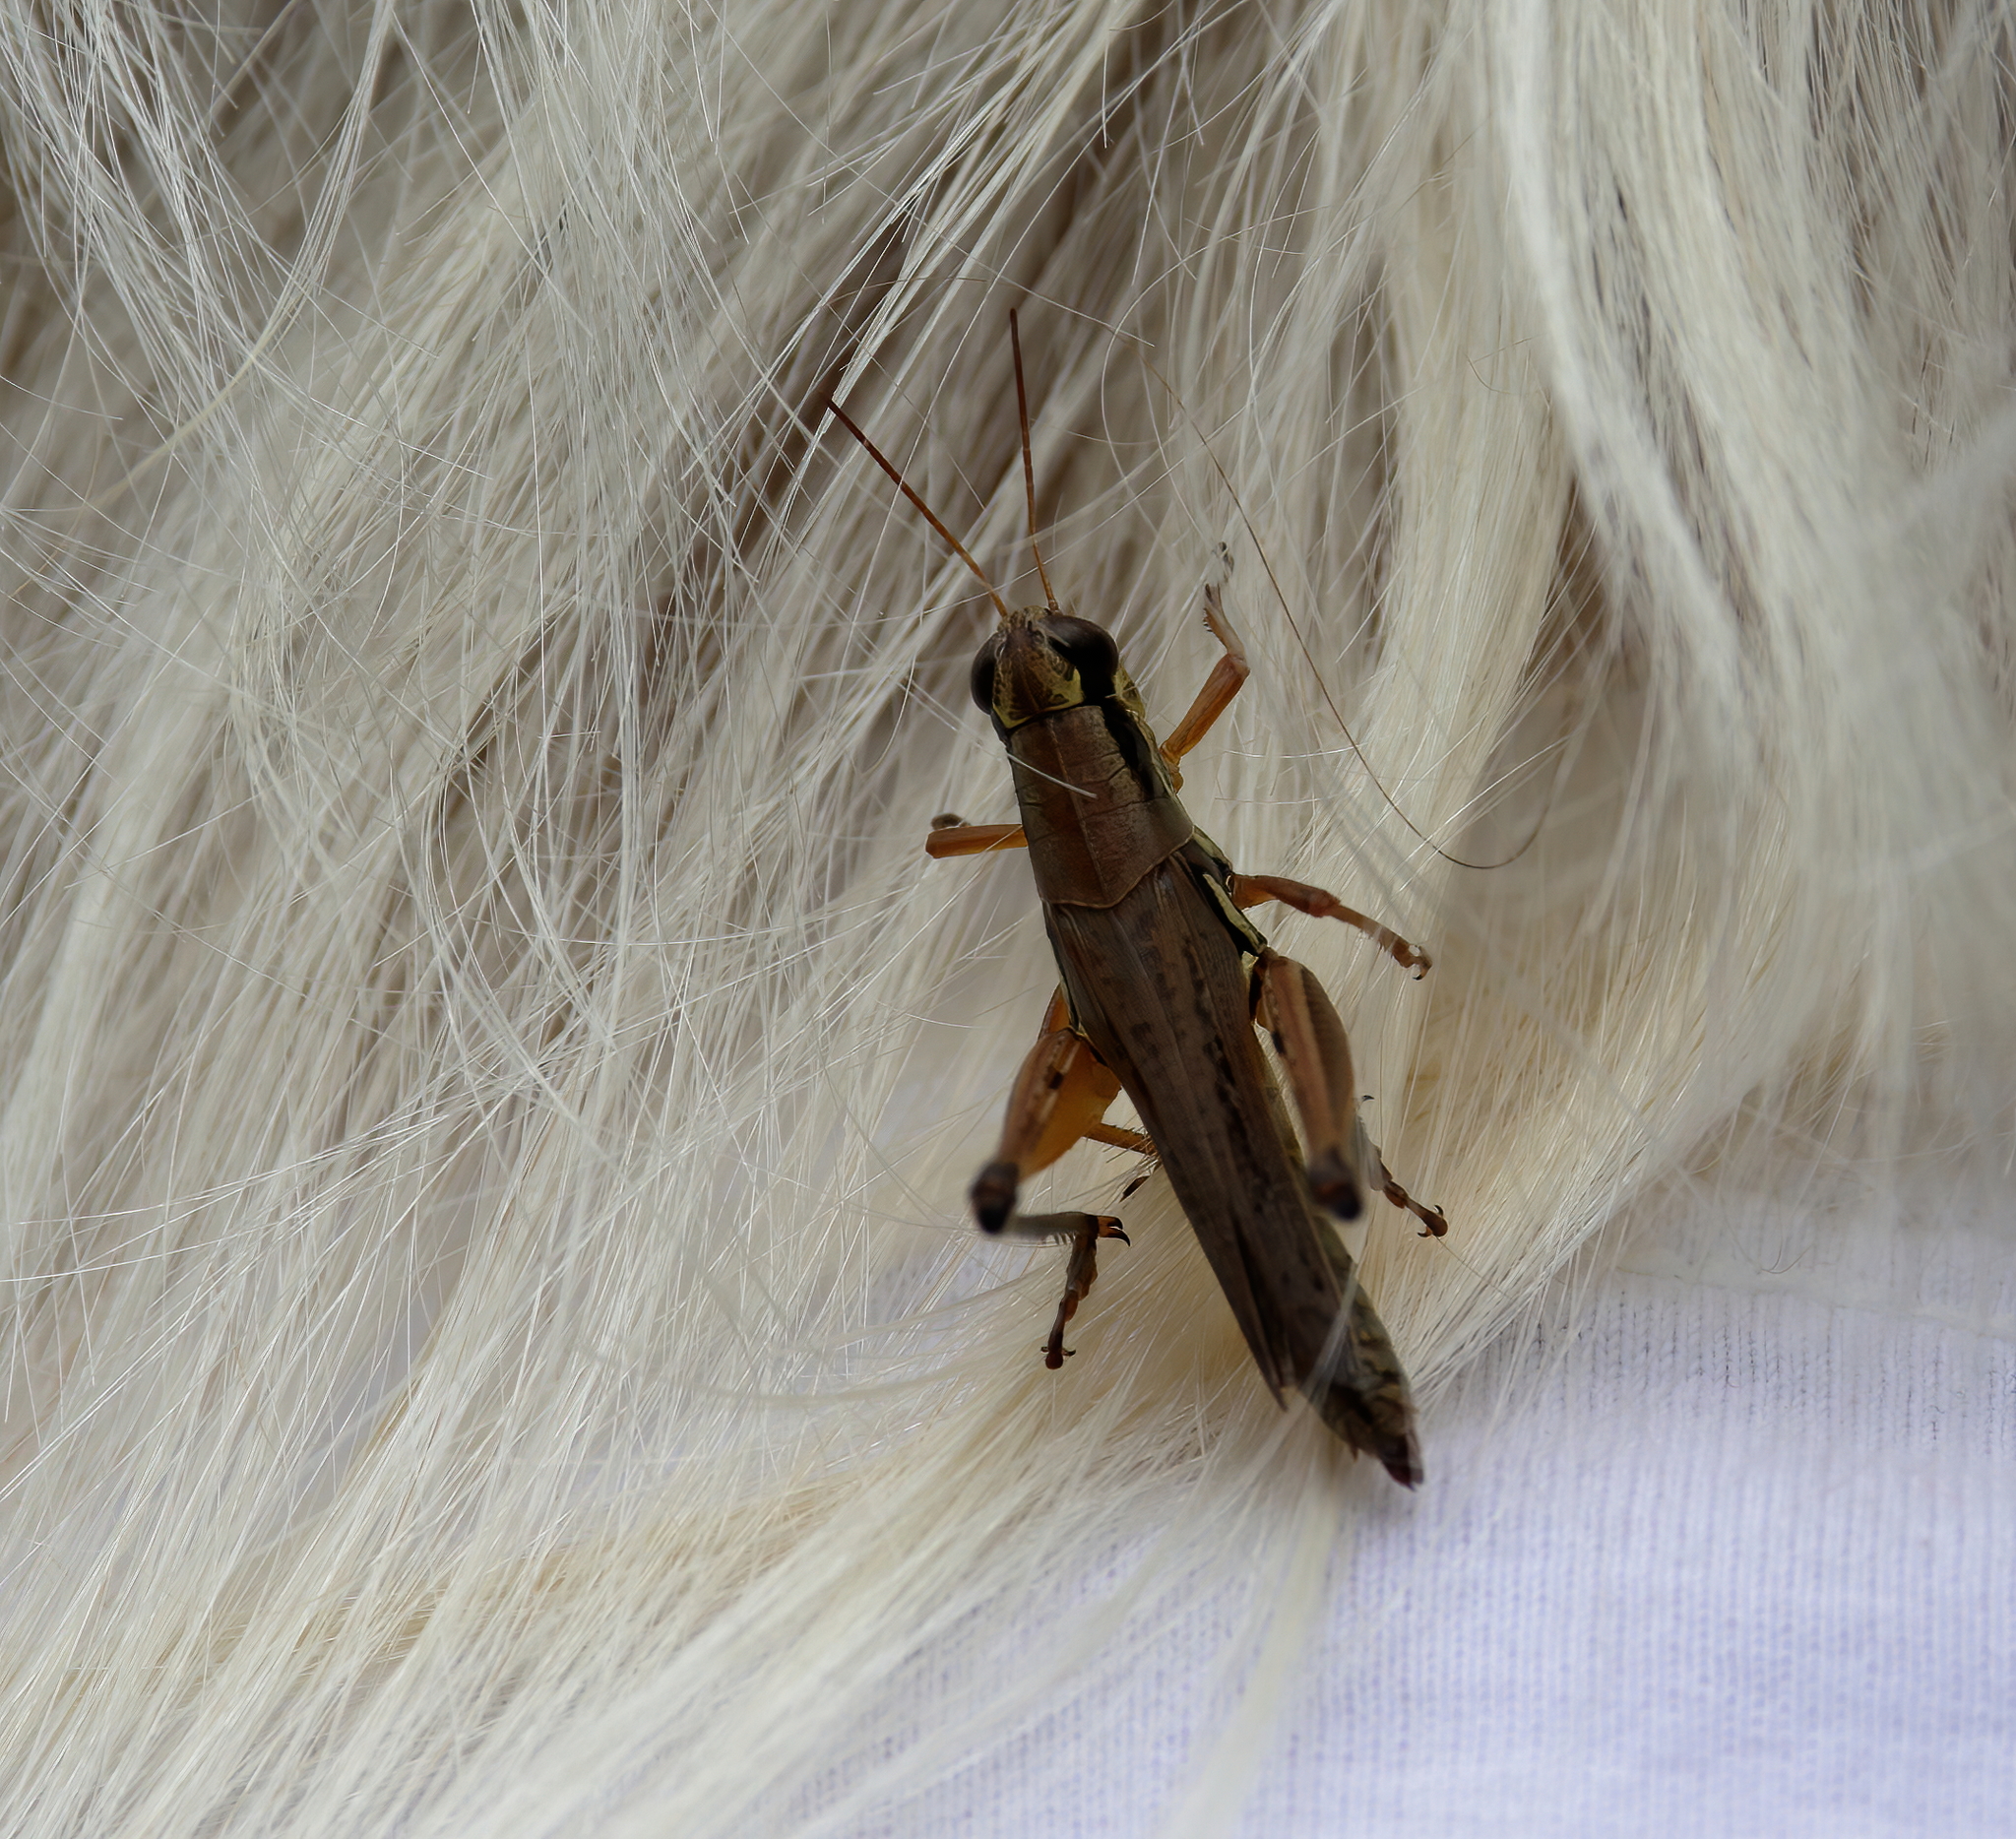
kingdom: Animalia
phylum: Arthropoda
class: Insecta
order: Orthoptera
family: Acrididae
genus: Paroxya
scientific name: Paroxya atlantica
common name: Atlantic grasshopper
